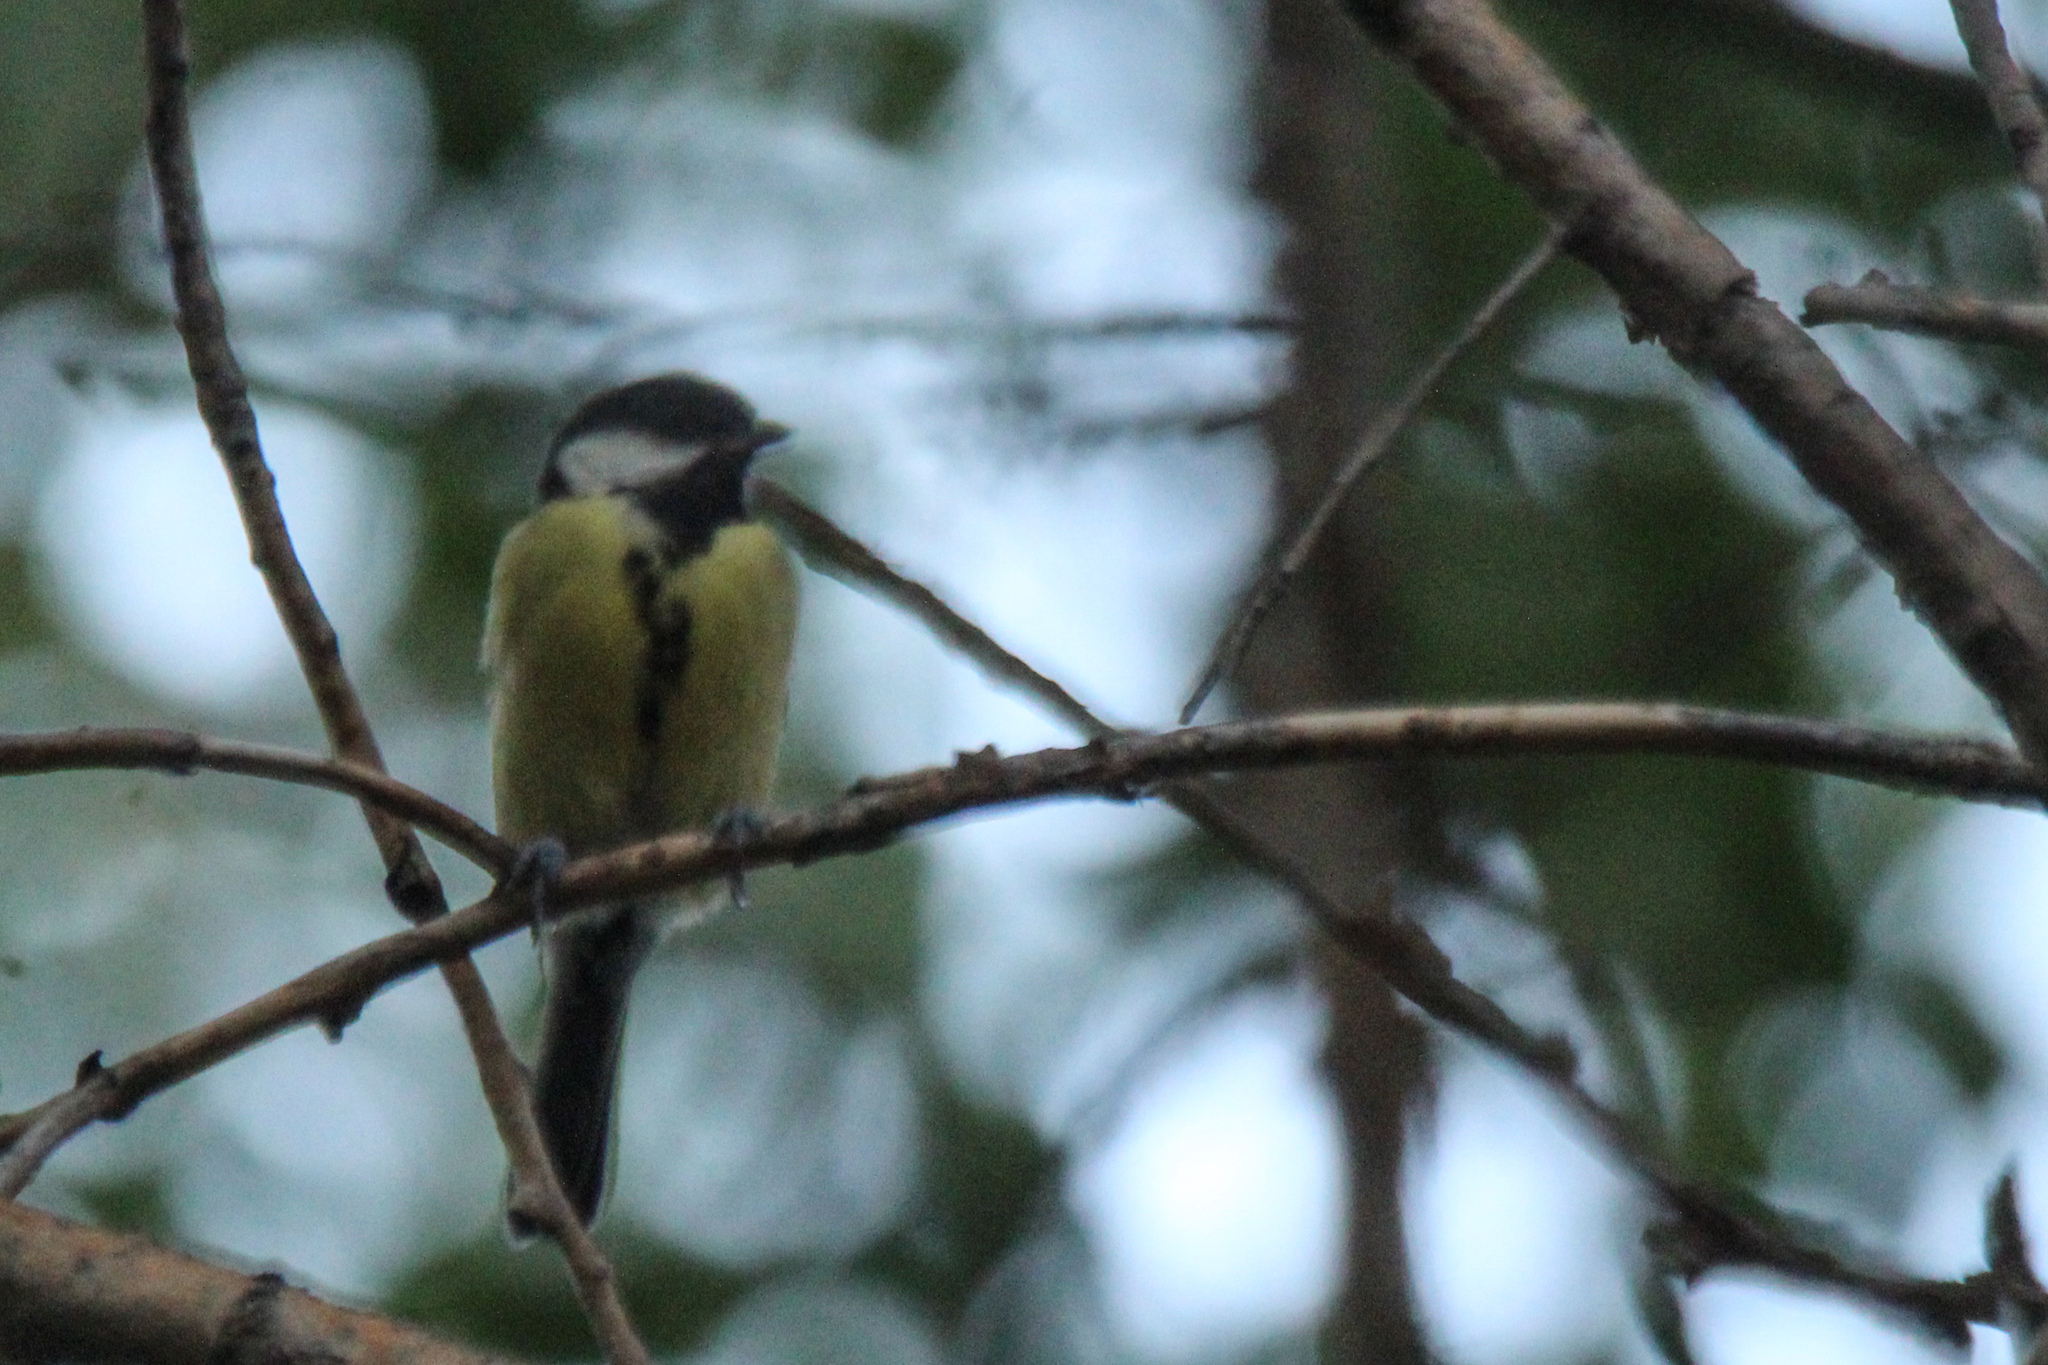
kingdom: Animalia
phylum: Chordata
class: Aves
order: Passeriformes
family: Paridae
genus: Parus
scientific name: Parus major
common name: Great tit
